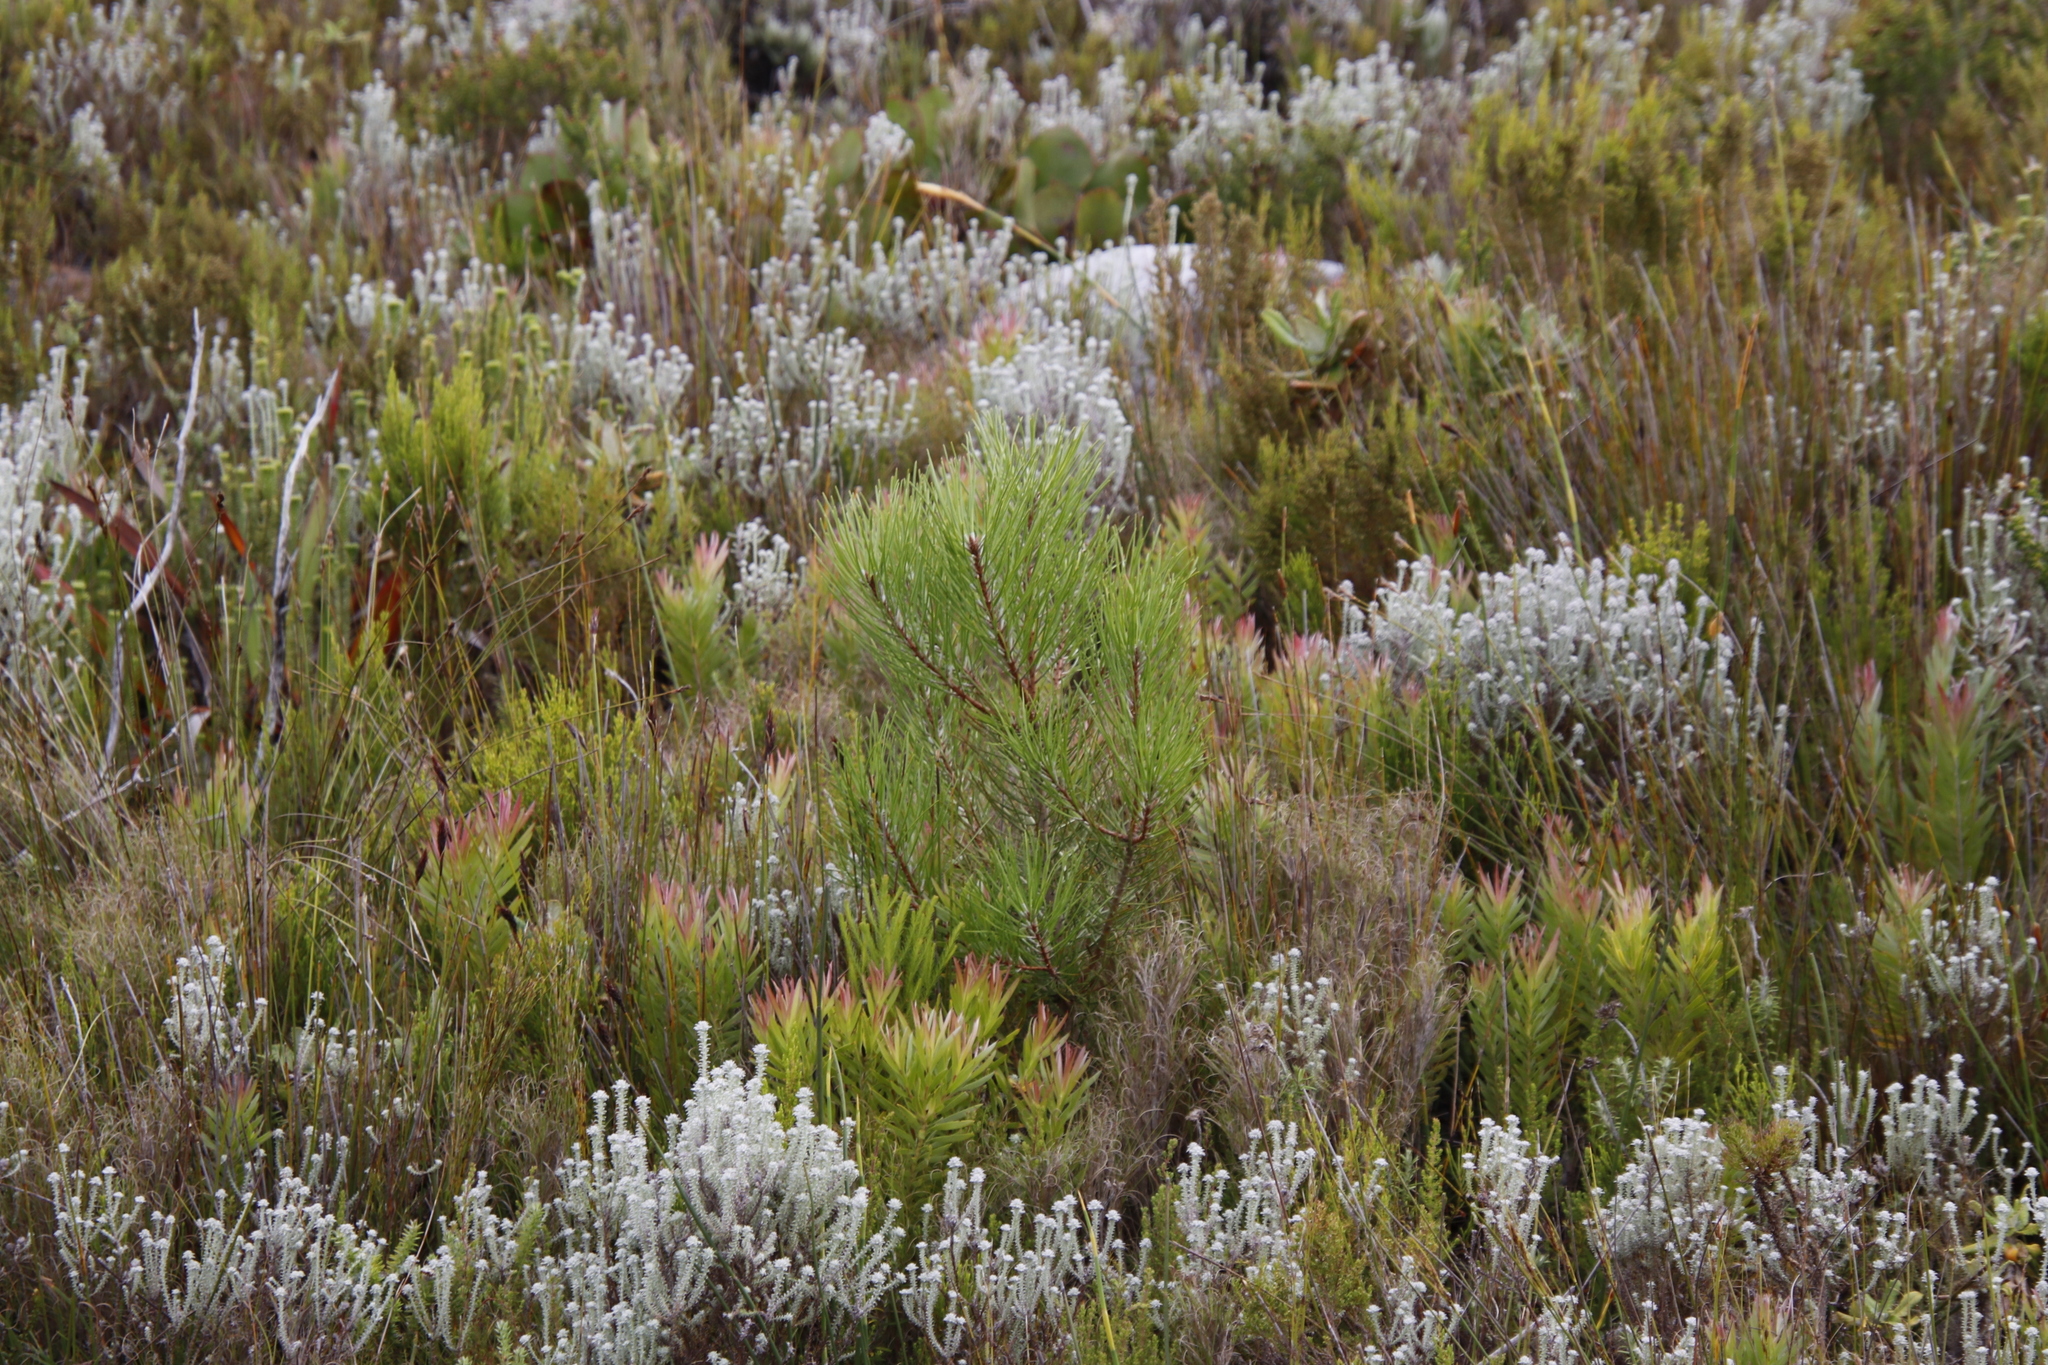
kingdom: Plantae
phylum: Tracheophyta
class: Pinopsida
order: Pinales
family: Pinaceae
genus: Pinus
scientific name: Pinus pinaster
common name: Maritime pine
